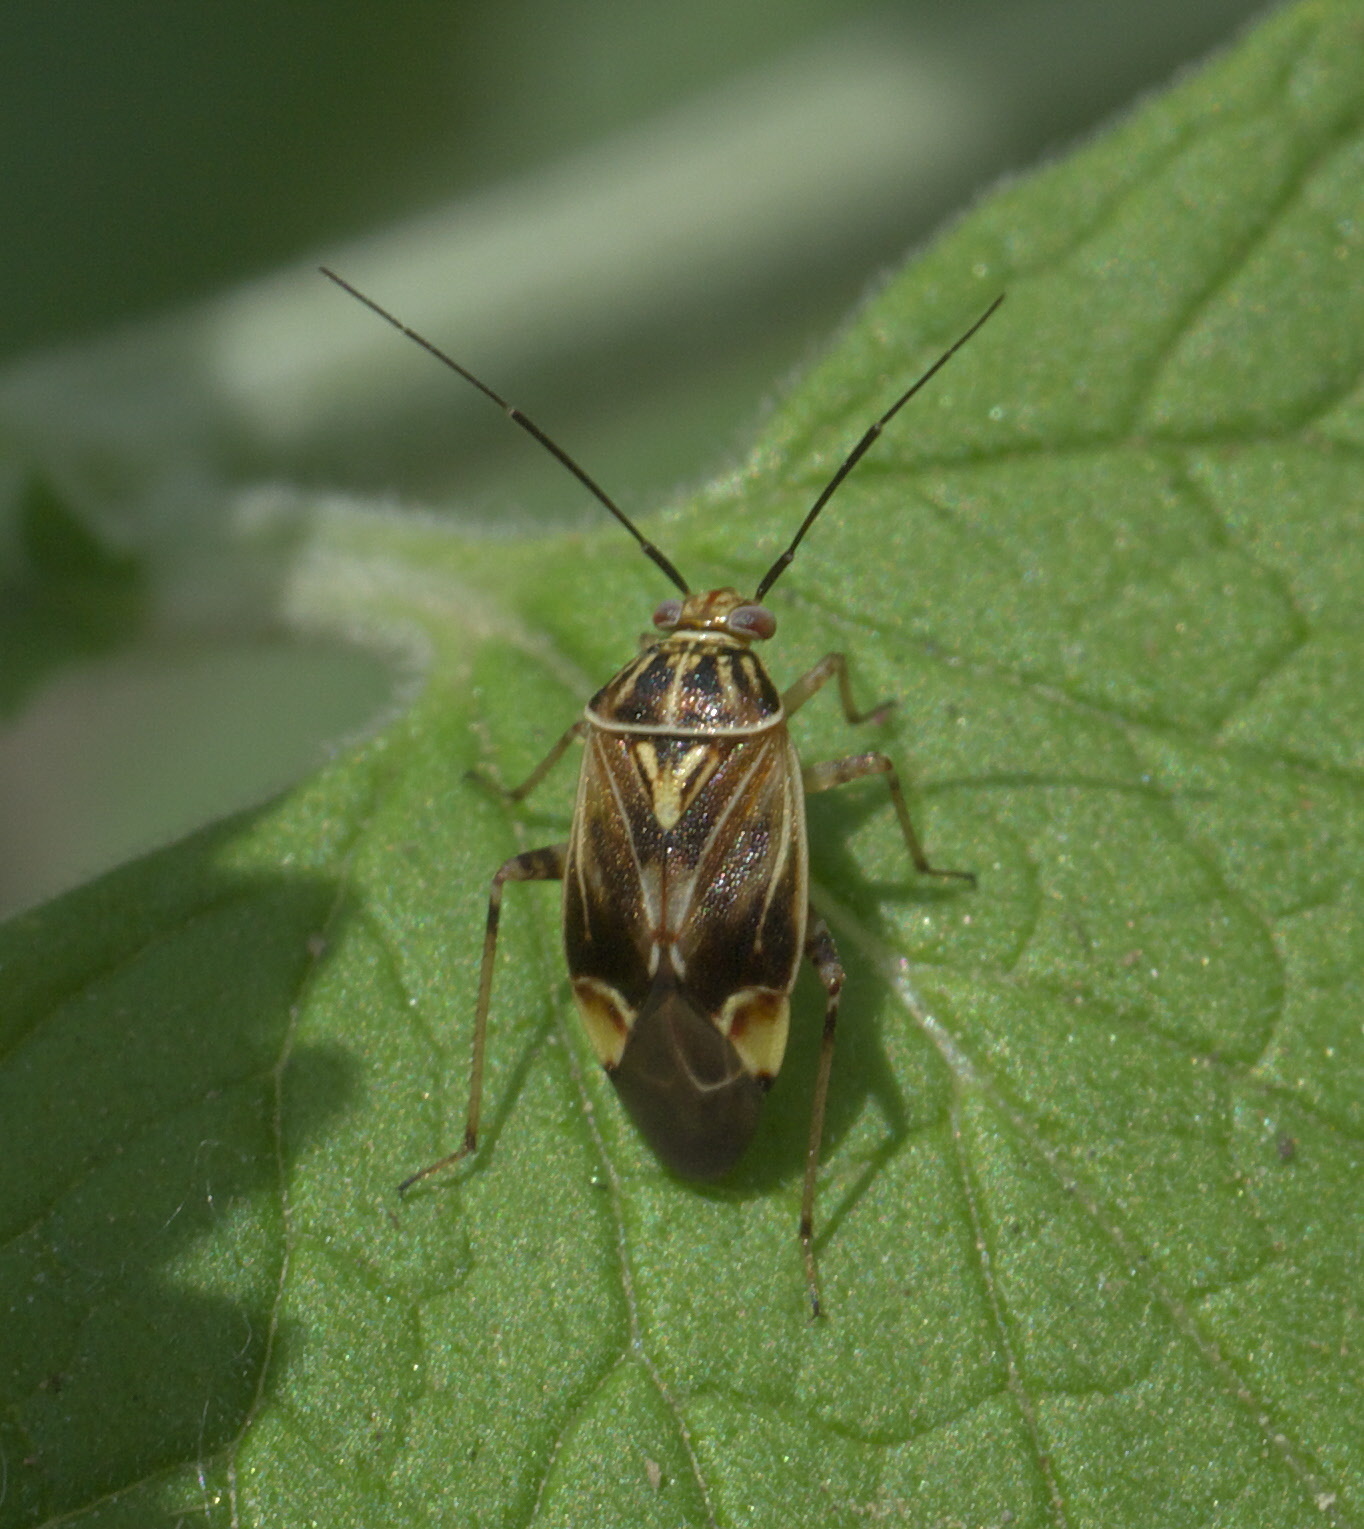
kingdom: Animalia
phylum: Arthropoda
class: Insecta
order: Hemiptera
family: Miridae
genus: Lygus
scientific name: Lygus lineolaris
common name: North american tarnished plant bug
